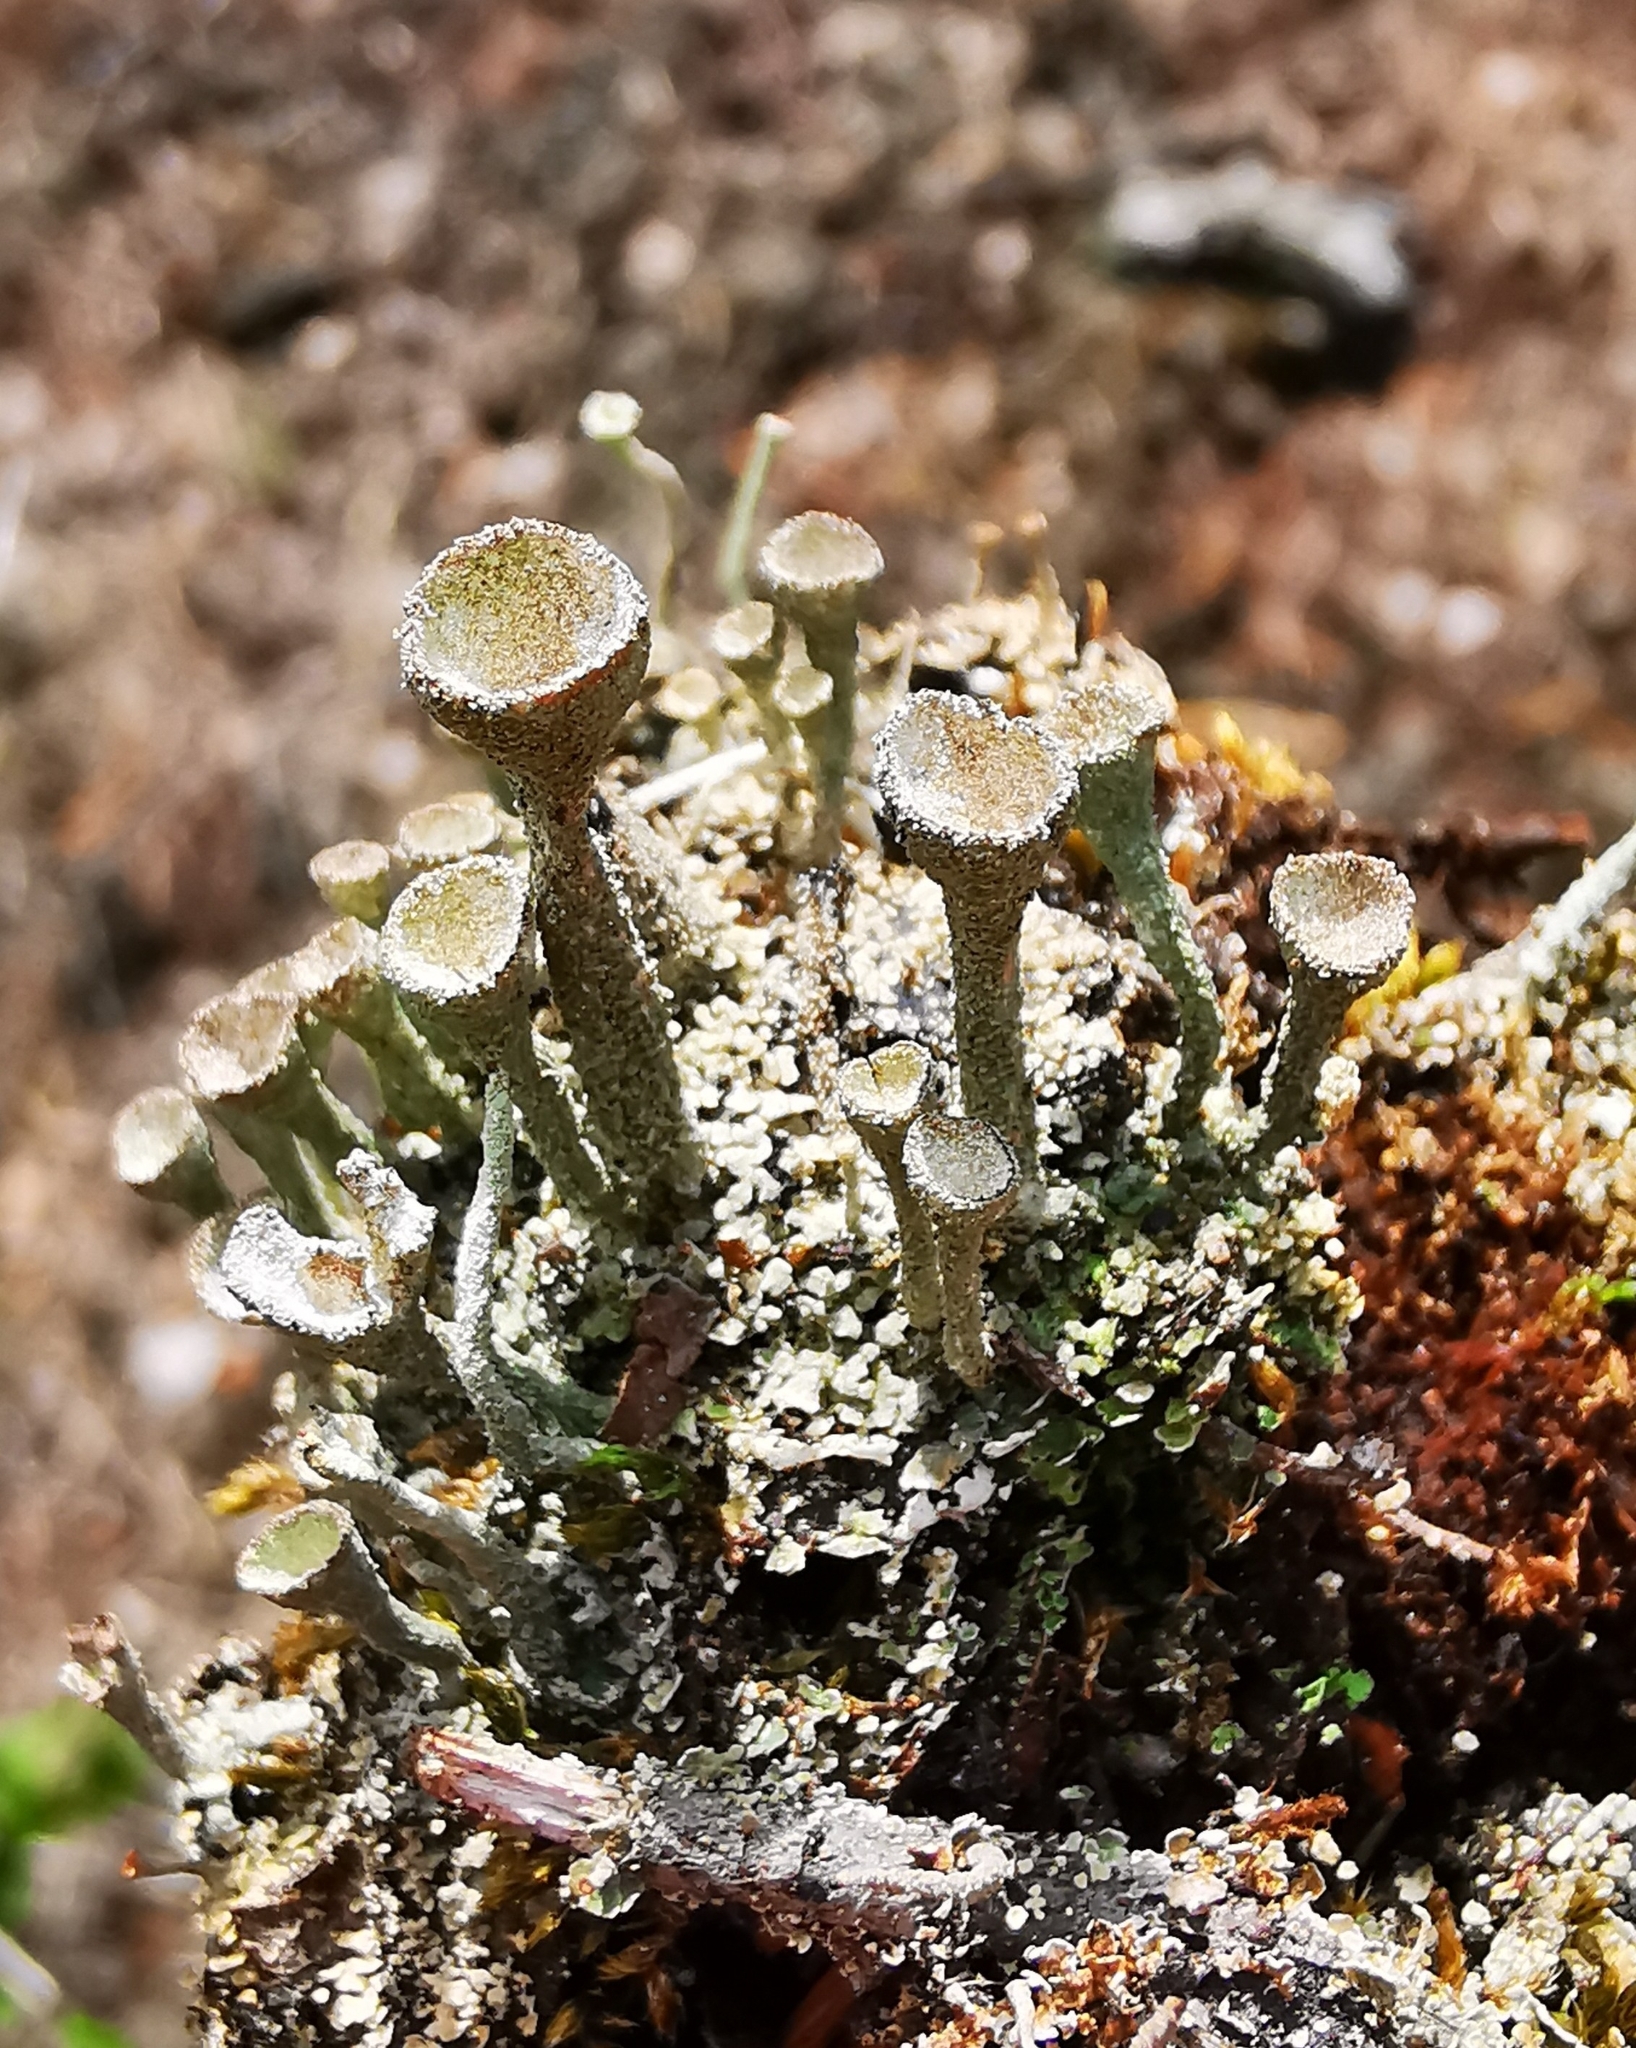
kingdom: Fungi
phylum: Ascomycota
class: Lecanoromycetes
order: Lecanorales
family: Cladoniaceae
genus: Cladonia
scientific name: Cladonia
